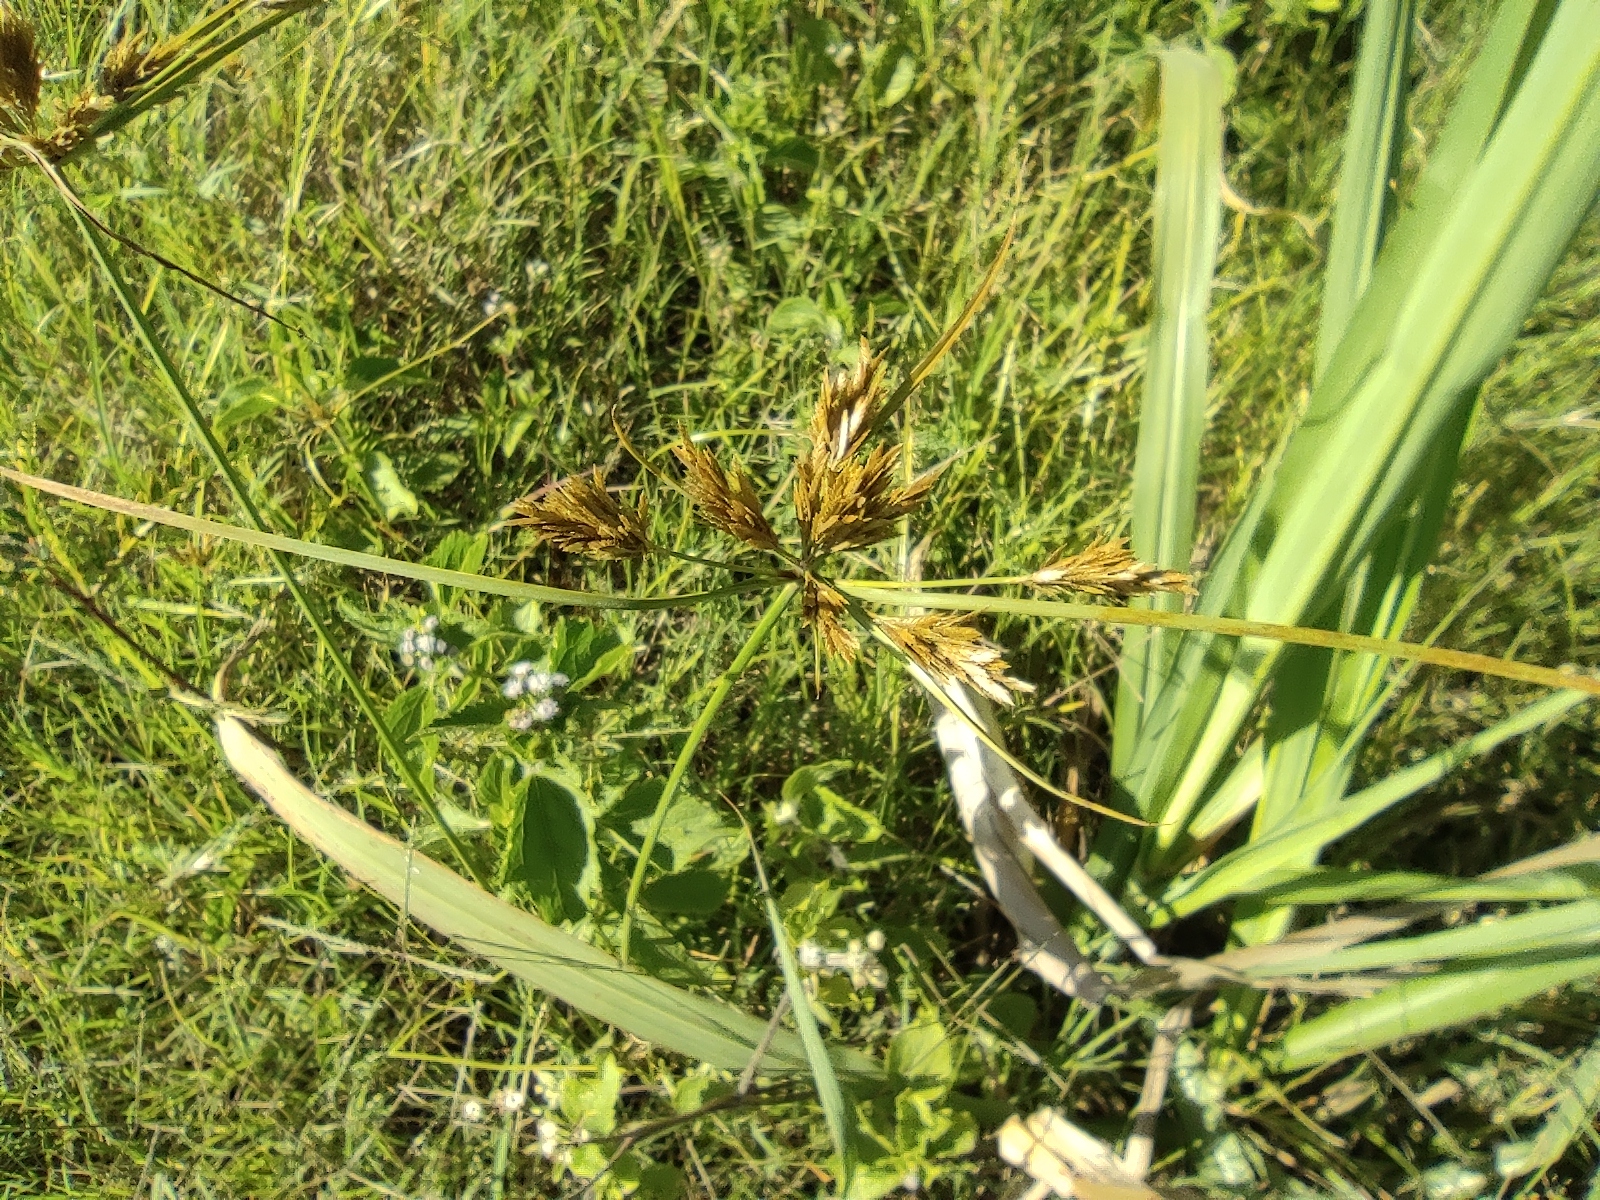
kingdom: Plantae
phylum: Tracheophyta
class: Liliopsida
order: Poales
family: Cyperaceae
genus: Cyperus
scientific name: Cyperus polystachyos
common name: Bunchy flat sedge
